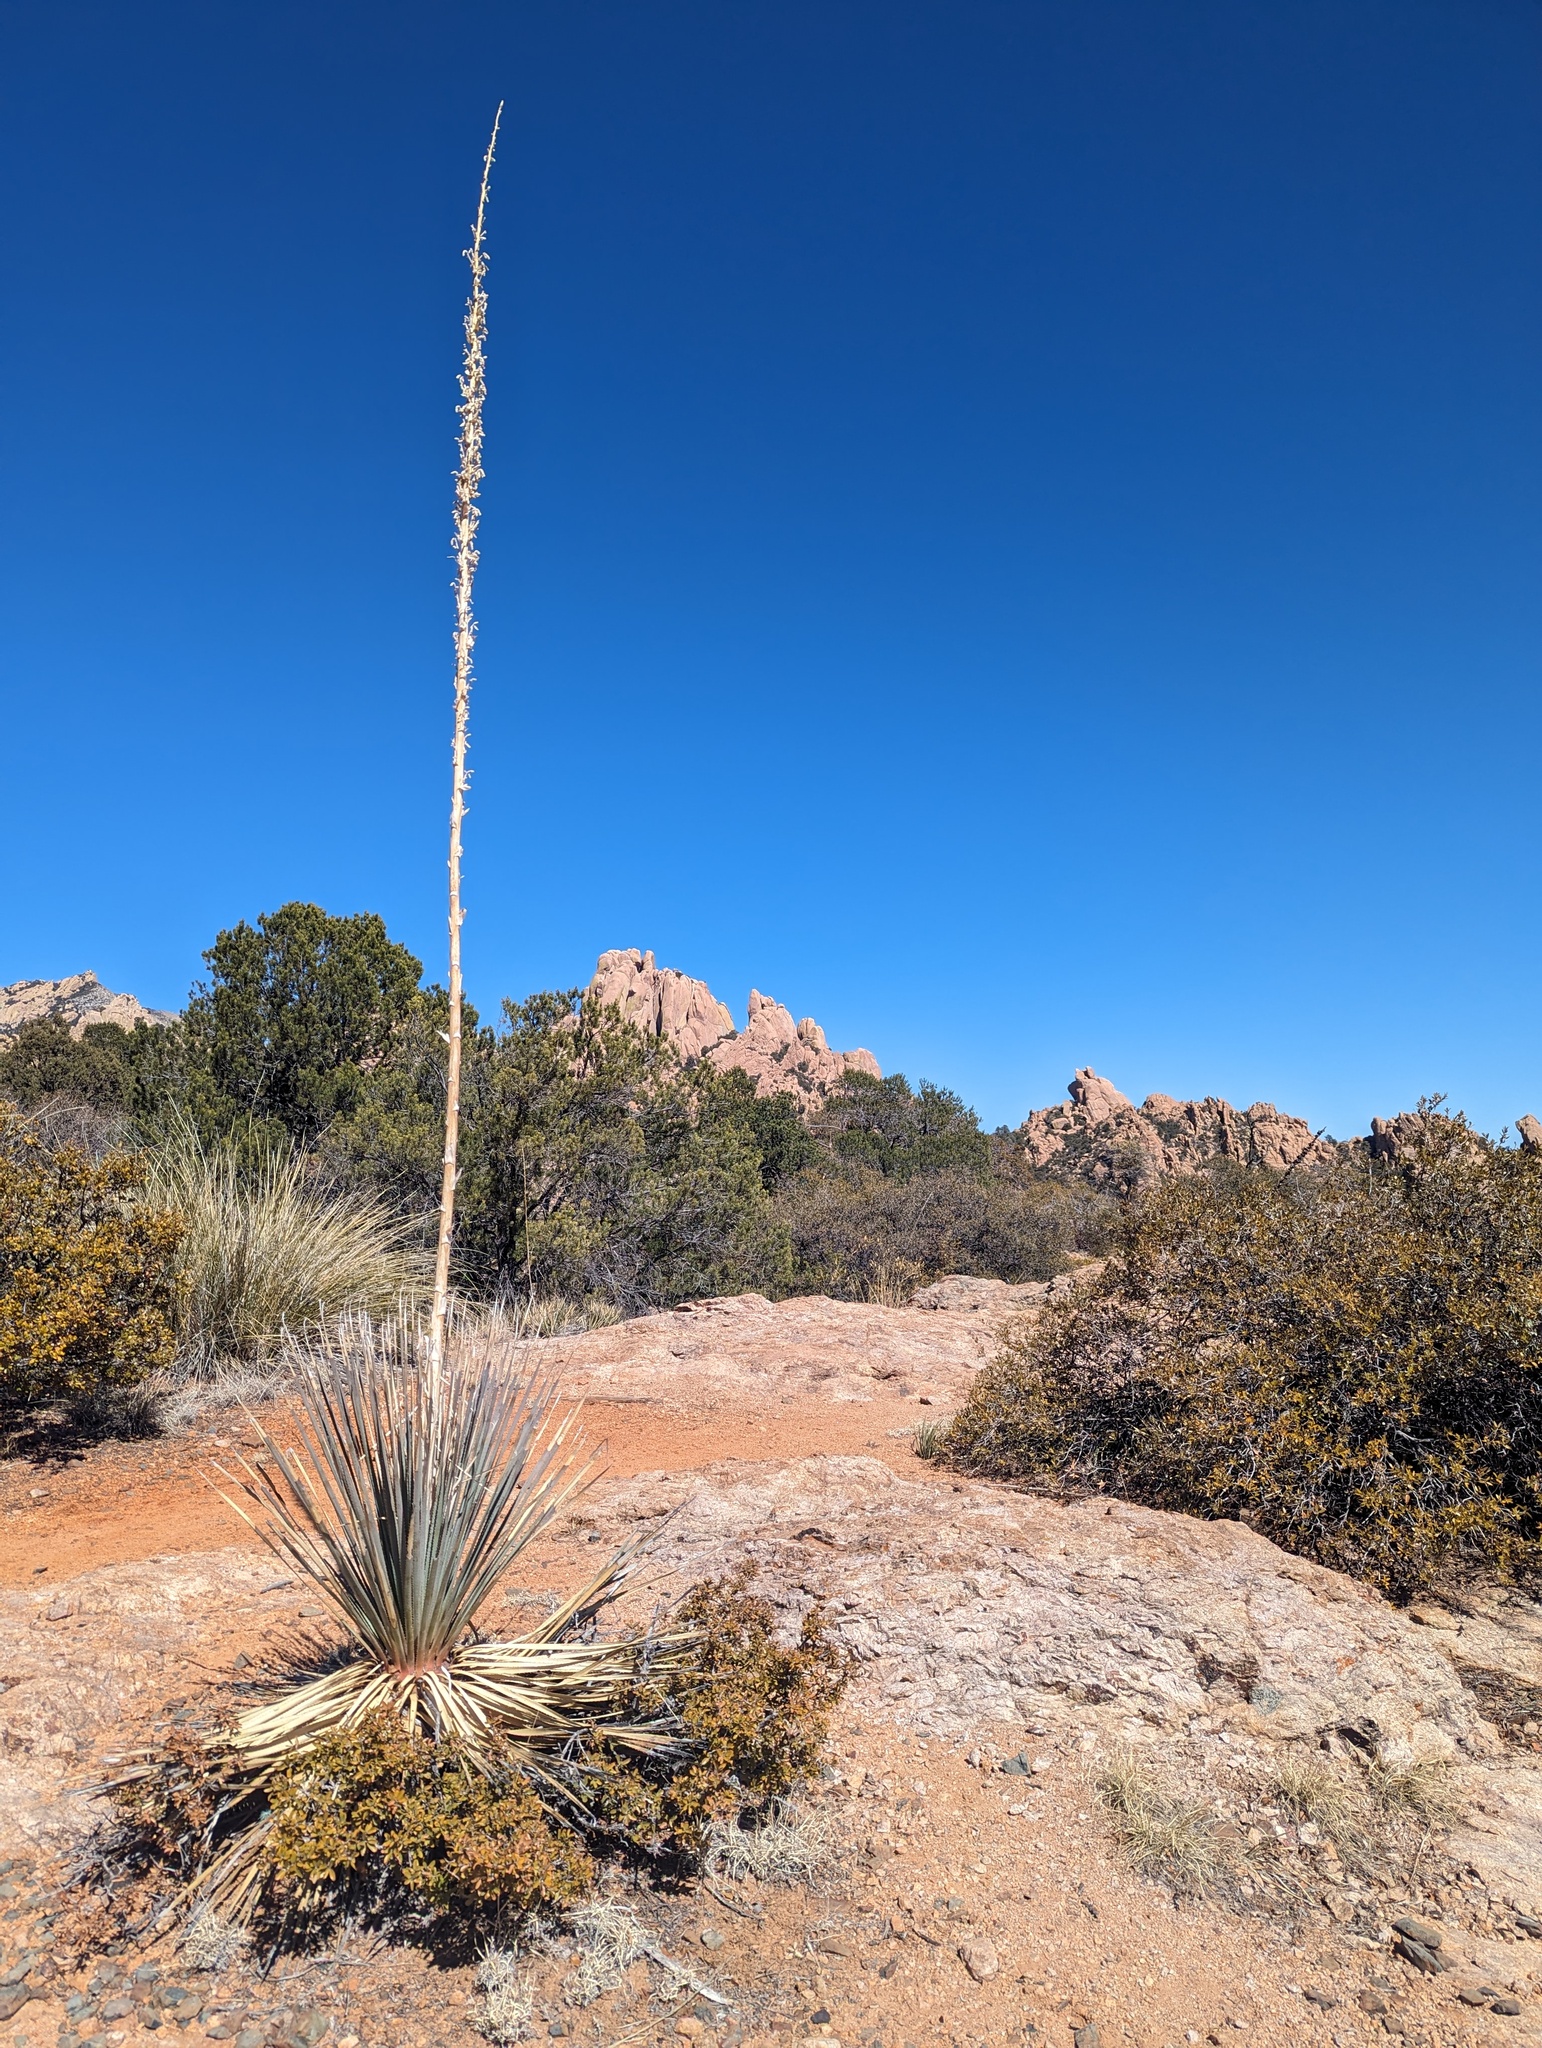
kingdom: Plantae
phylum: Tracheophyta
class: Liliopsida
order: Asparagales
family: Asparagaceae
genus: Dasylirion
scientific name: Dasylirion wheeleri
